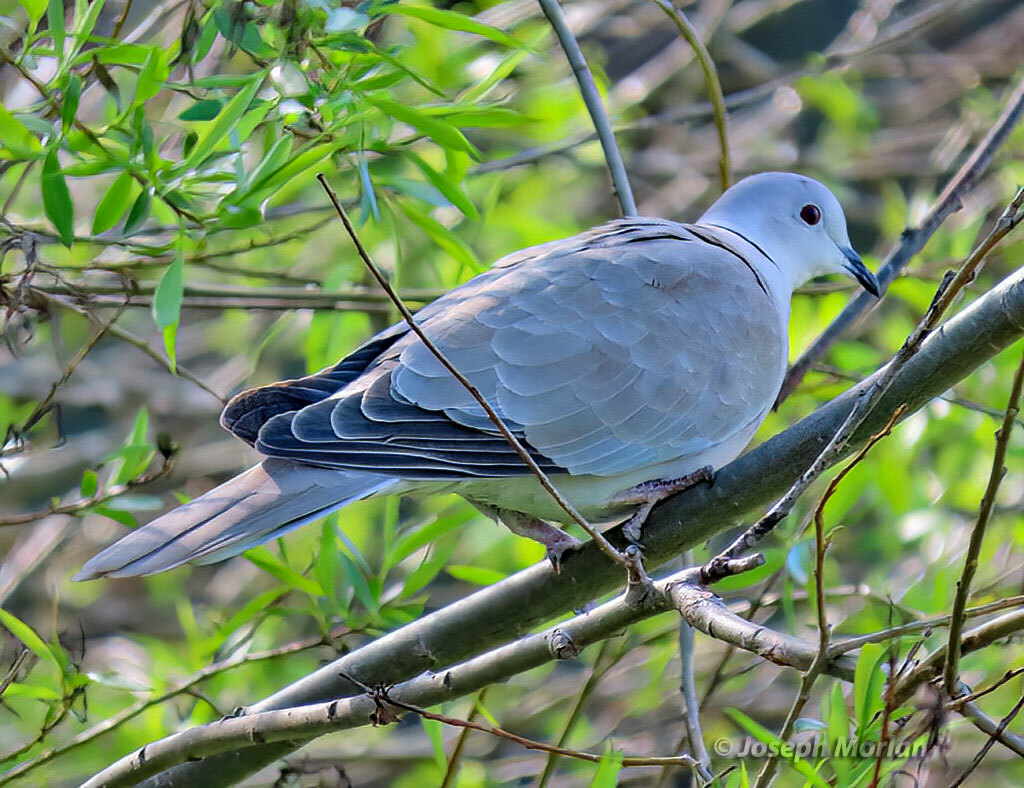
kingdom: Animalia
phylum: Chordata
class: Aves
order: Columbiformes
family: Columbidae
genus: Streptopelia
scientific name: Streptopelia decaocto
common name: Eurasian collared dove
